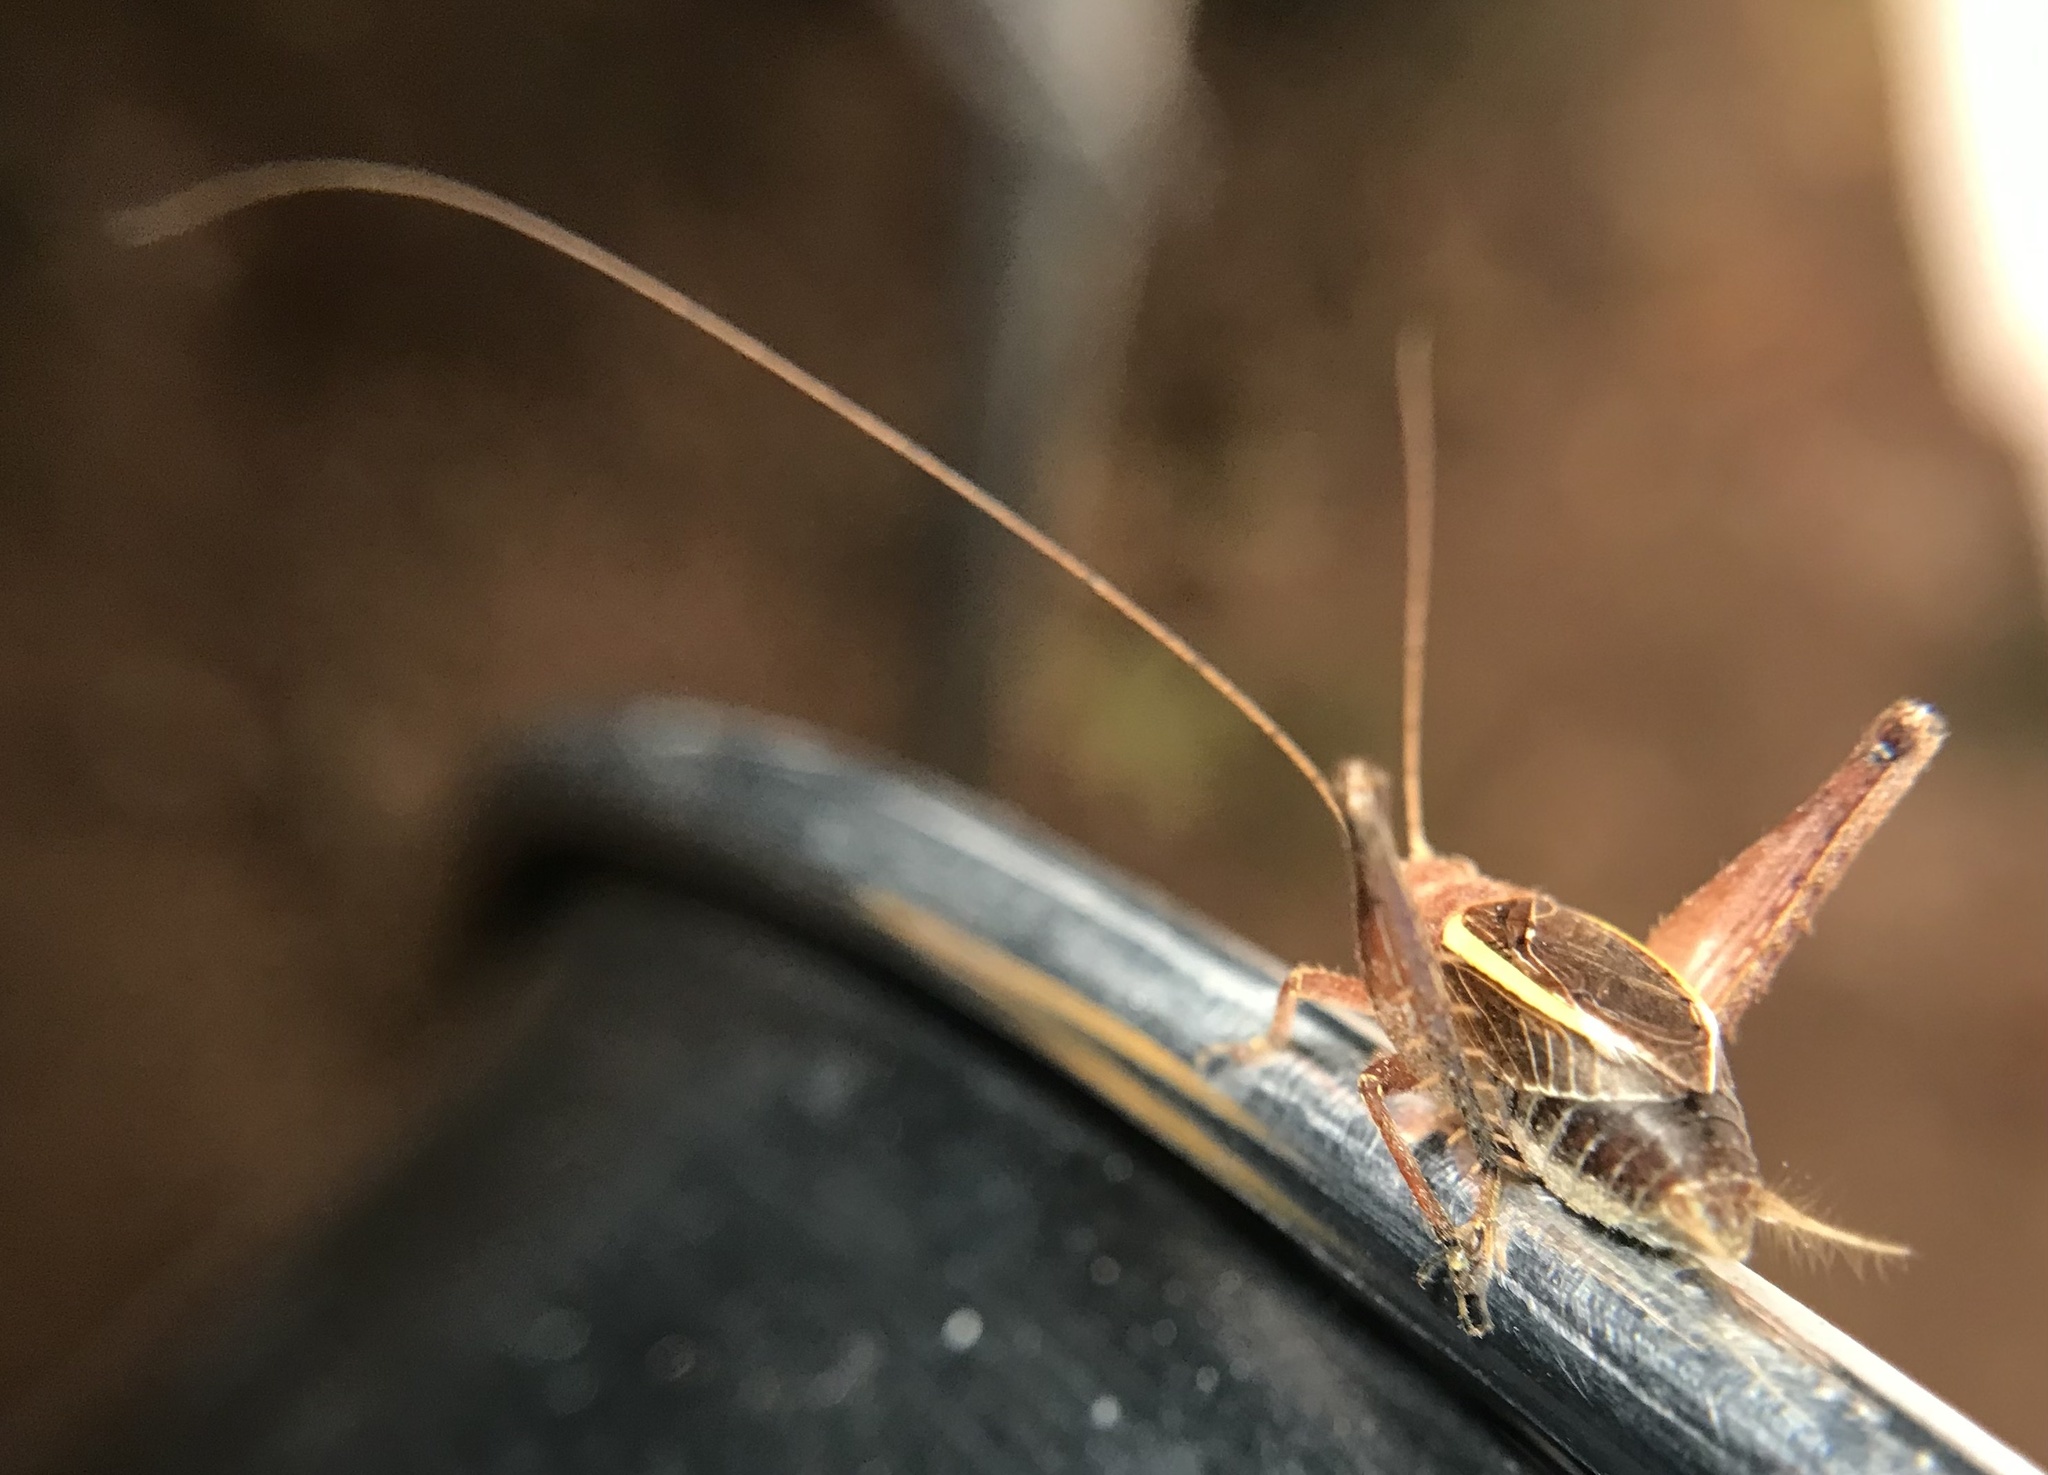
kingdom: Animalia
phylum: Arthropoda
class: Insecta
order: Orthoptera
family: Gryllidae
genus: Hapithus
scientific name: Hapithus agitator
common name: Restless bush cricket
